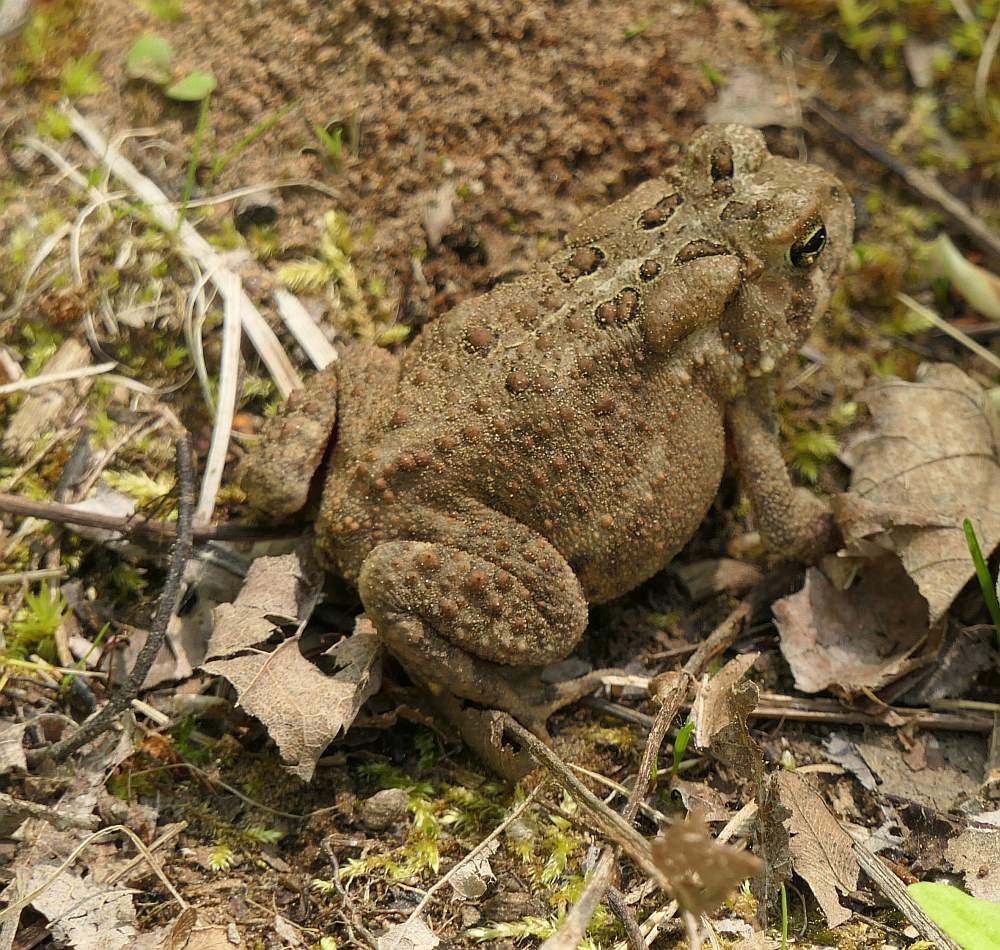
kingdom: Animalia
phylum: Chordata
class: Amphibia
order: Anura
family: Bufonidae
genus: Anaxyrus
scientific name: Anaxyrus americanus
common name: American toad
